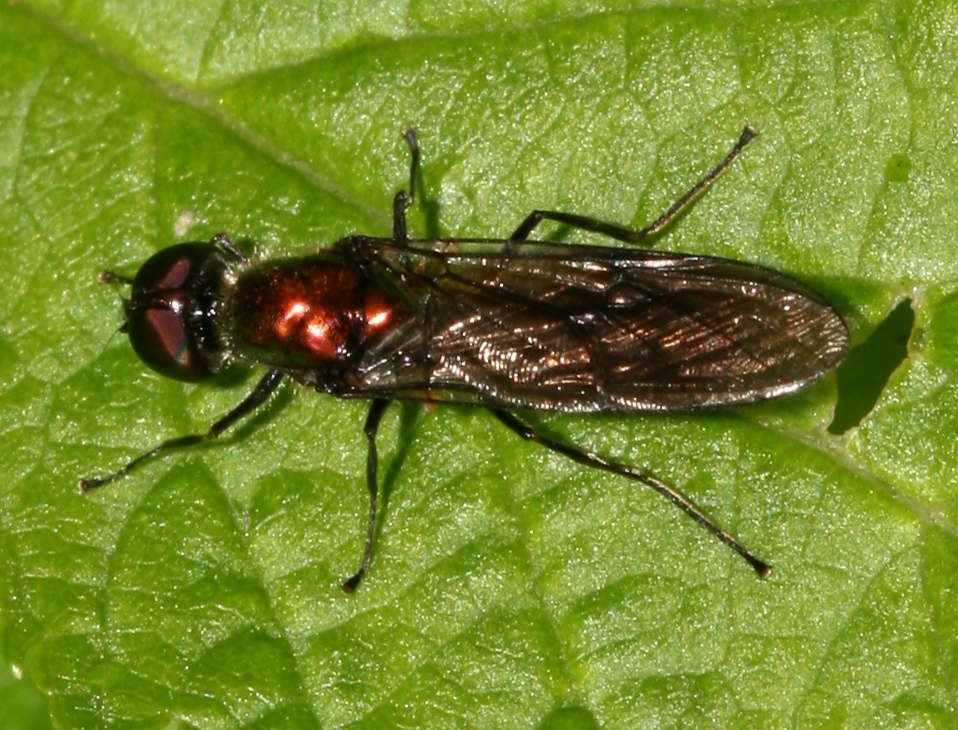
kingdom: Animalia
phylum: Arthropoda
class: Insecta
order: Diptera
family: Stratiomyidae
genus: Sargus
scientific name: Sargus iridatus
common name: Iridescent centurion
